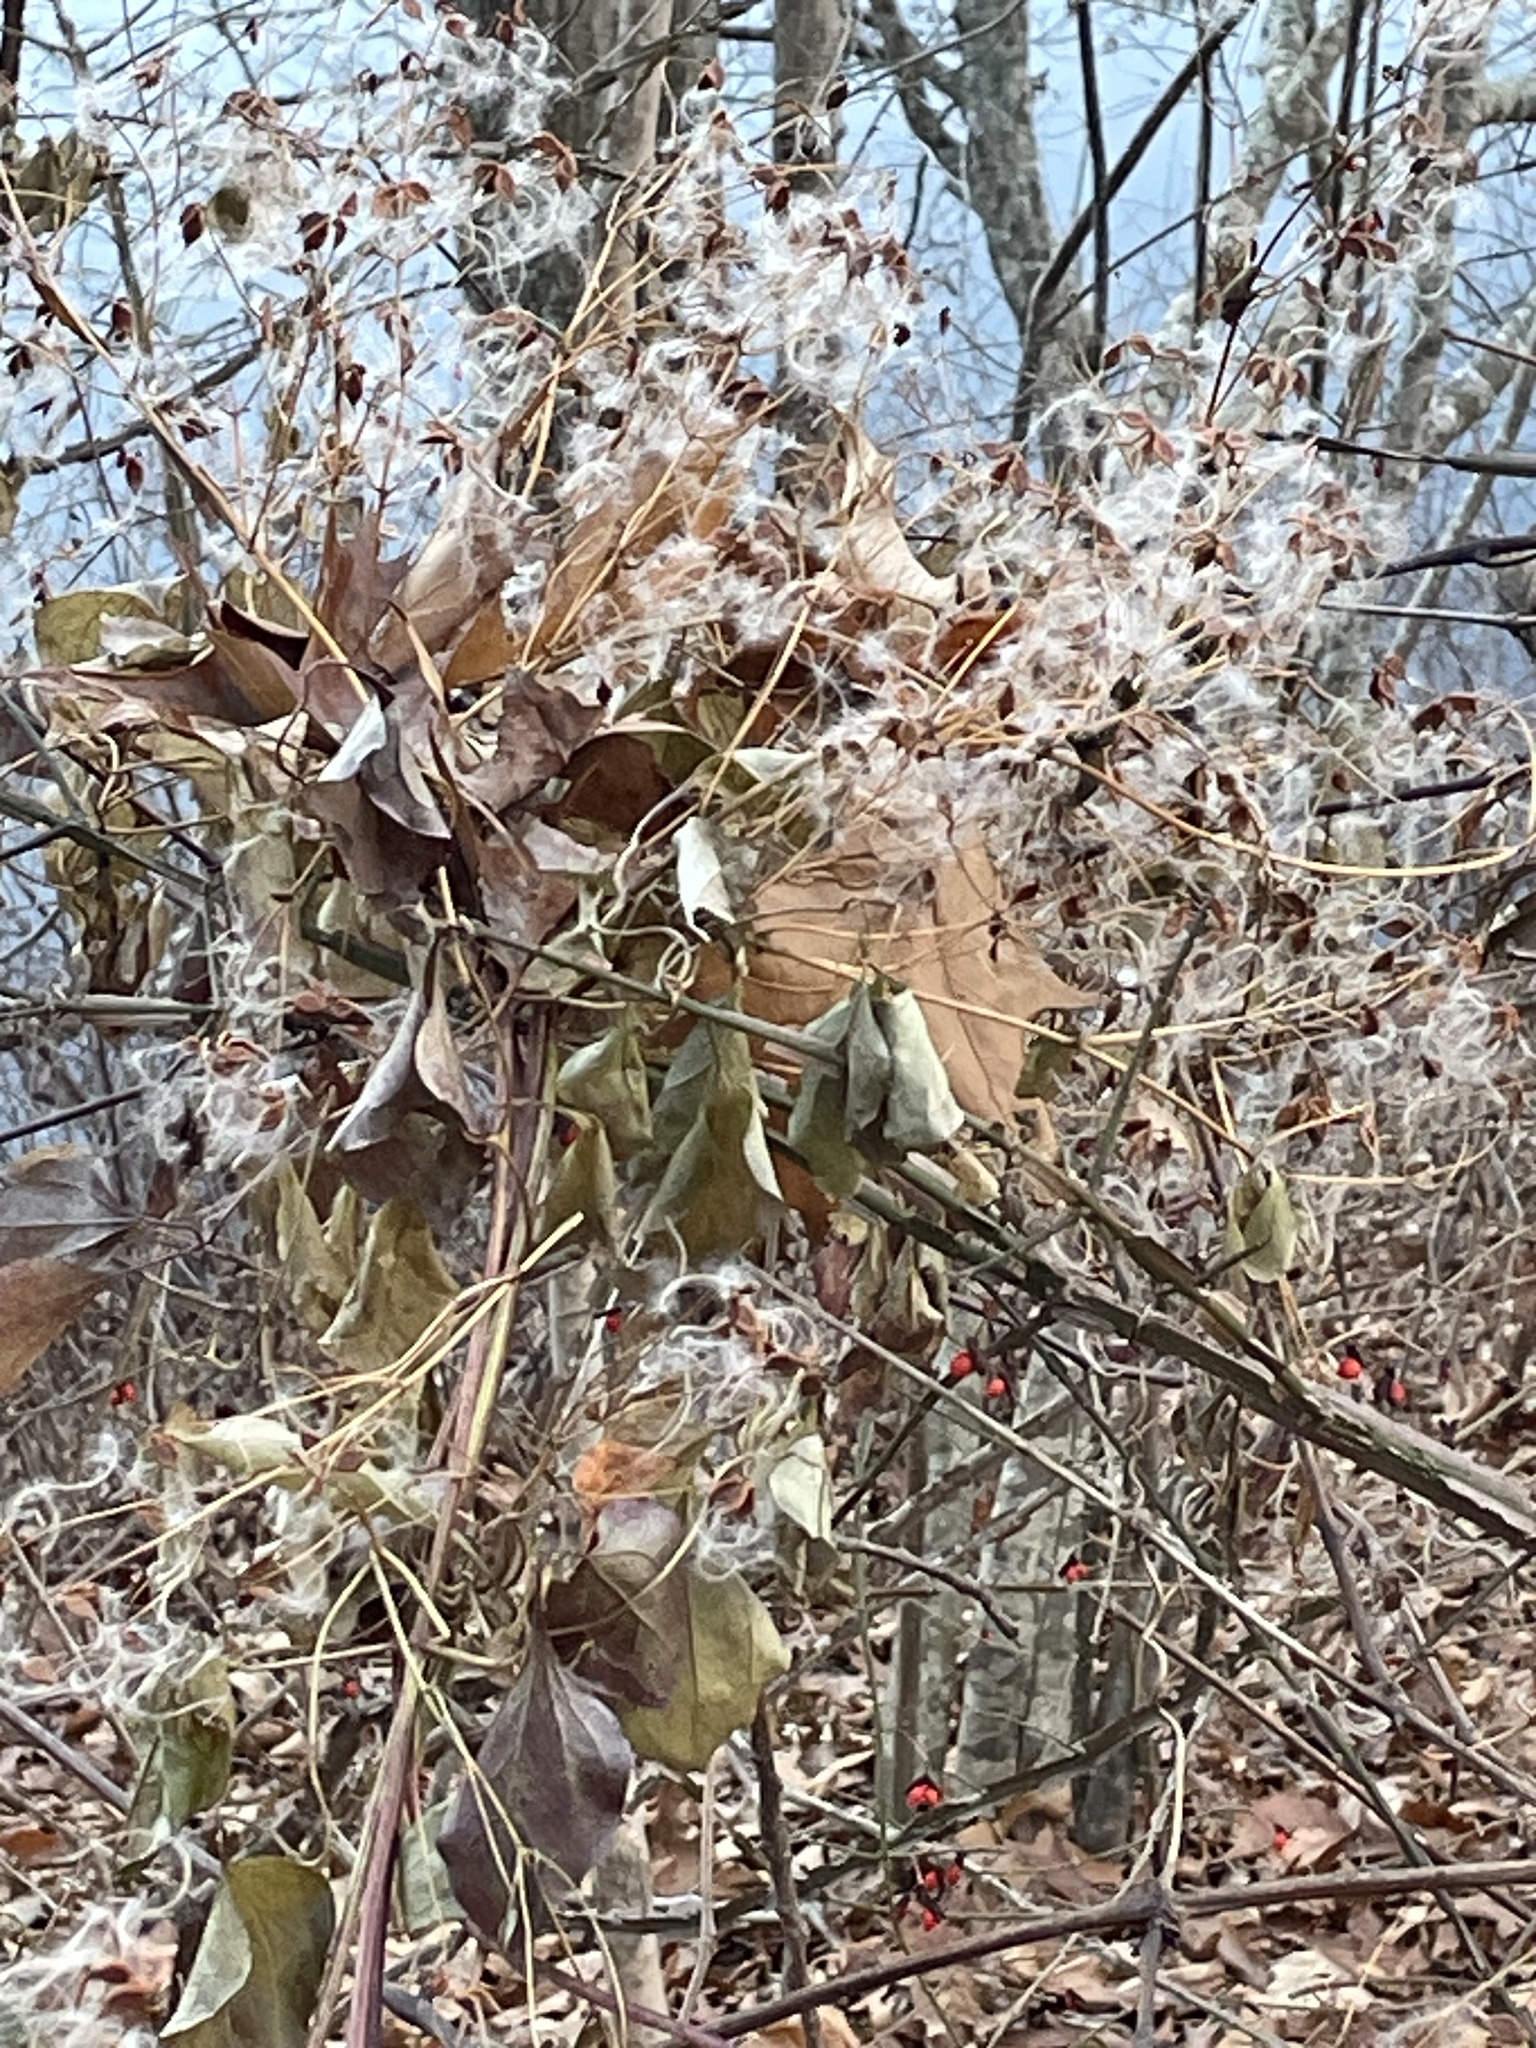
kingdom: Plantae
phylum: Tracheophyta
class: Magnoliopsida
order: Ranunculales
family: Ranunculaceae
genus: Clematis
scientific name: Clematis terniflora
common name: Sweet autumn clematis
